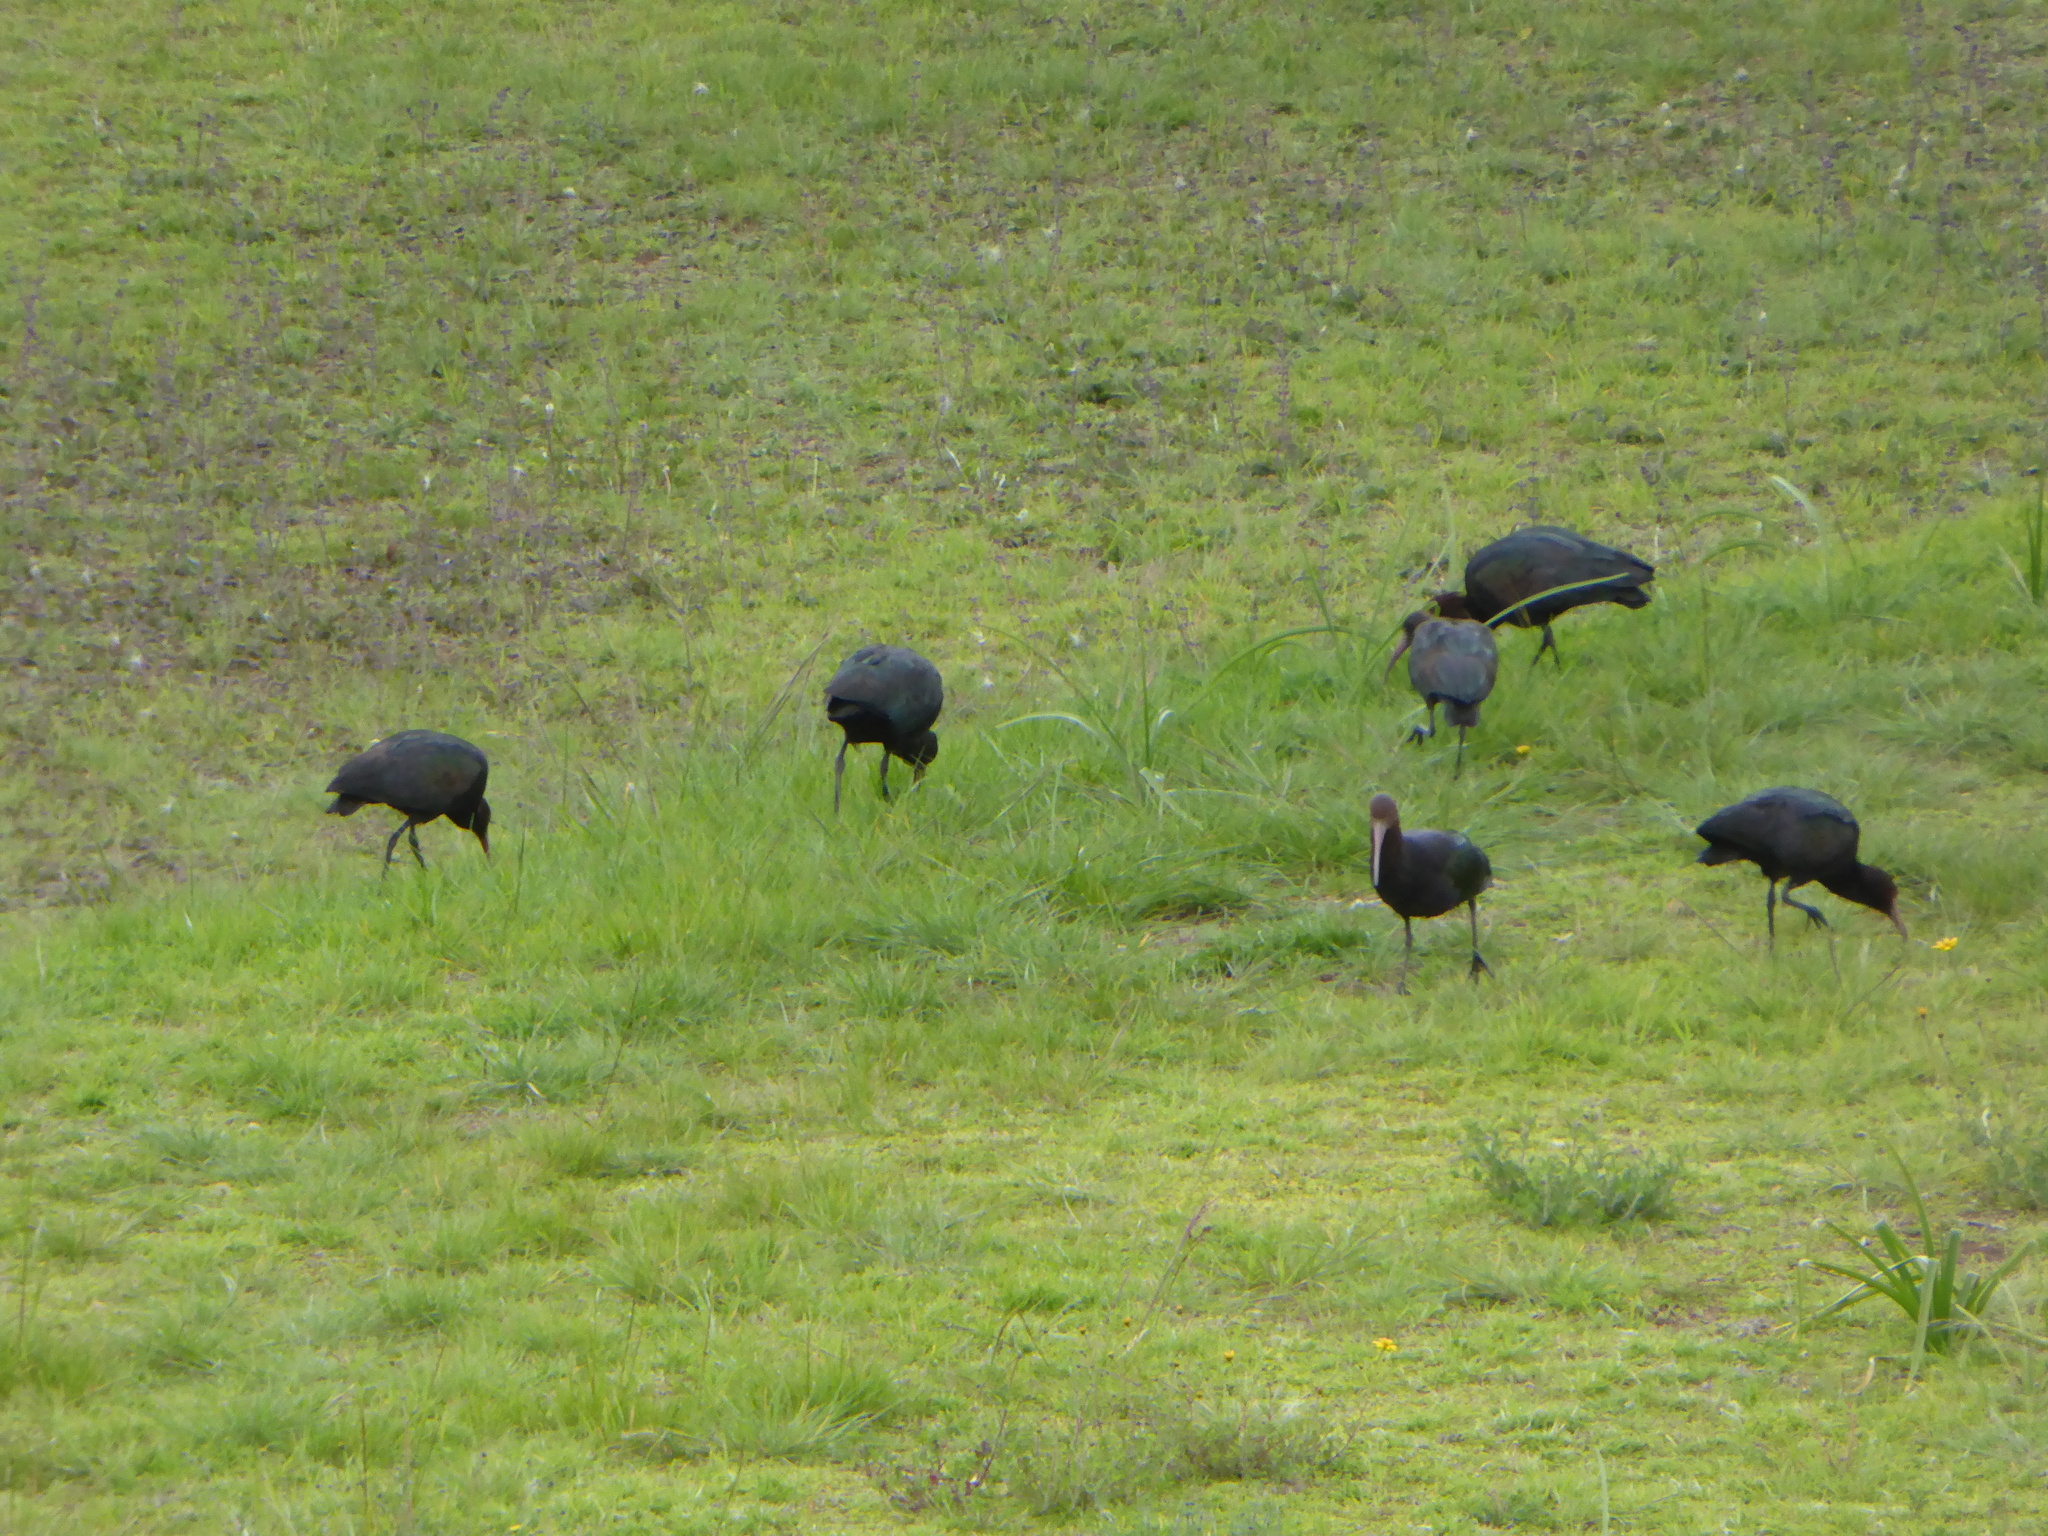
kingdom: Animalia
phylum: Chordata
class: Aves
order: Pelecaniformes
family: Threskiornithidae
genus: Plegadis
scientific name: Plegadis ridgwayi
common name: Puna ibis
